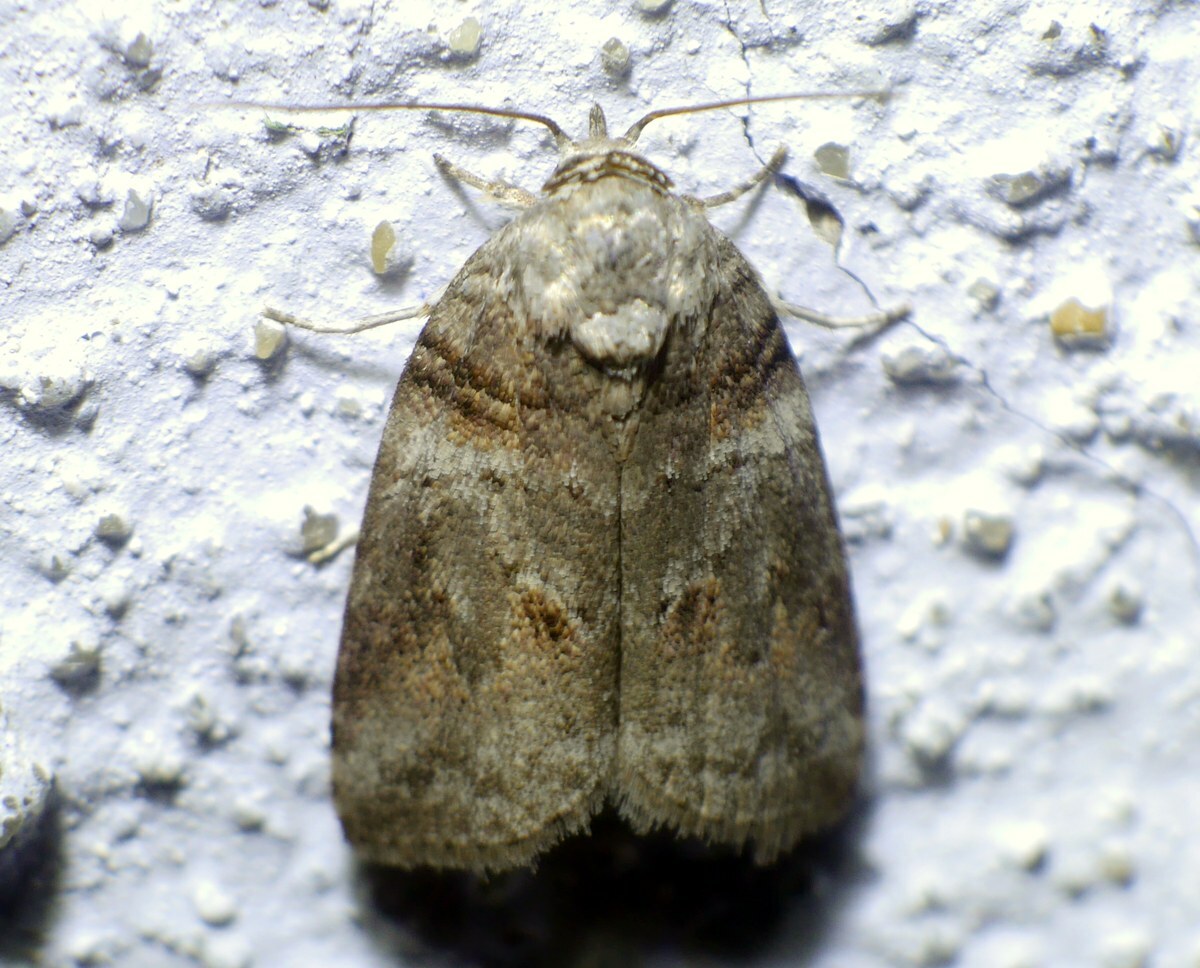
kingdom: Animalia
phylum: Arthropoda
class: Insecta
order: Lepidoptera
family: Nolidae
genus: Garella
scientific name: Garella musculana
